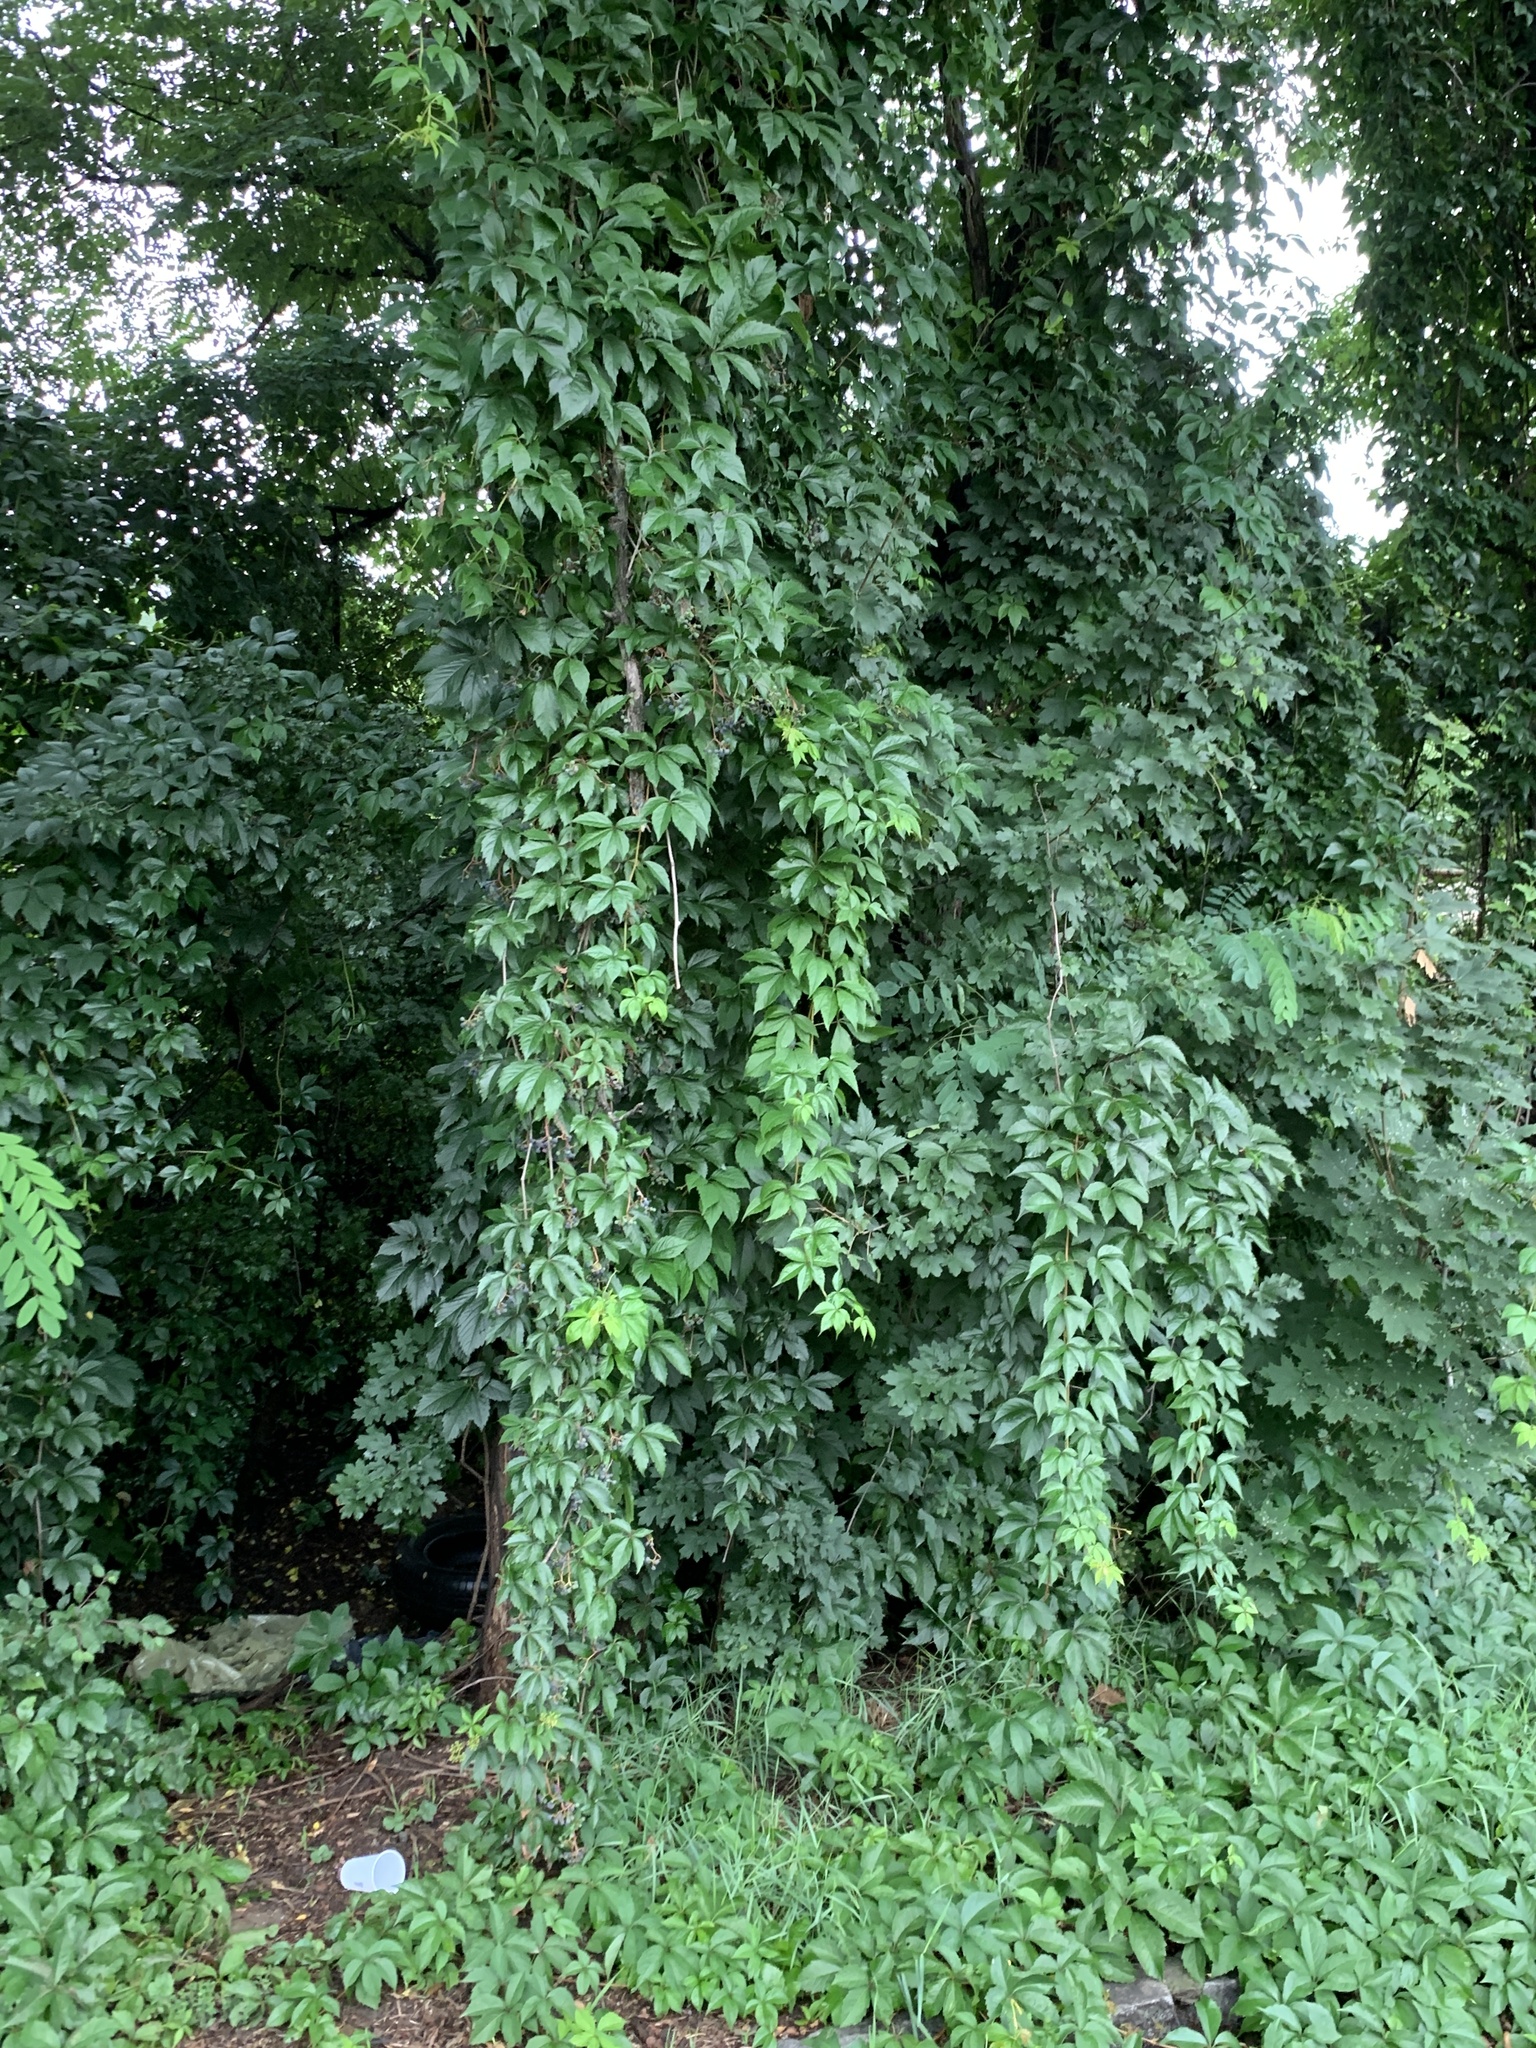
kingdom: Plantae
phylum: Tracheophyta
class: Magnoliopsida
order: Vitales
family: Vitaceae
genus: Parthenocissus
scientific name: Parthenocissus quinquefolia
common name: Virginia-creeper
